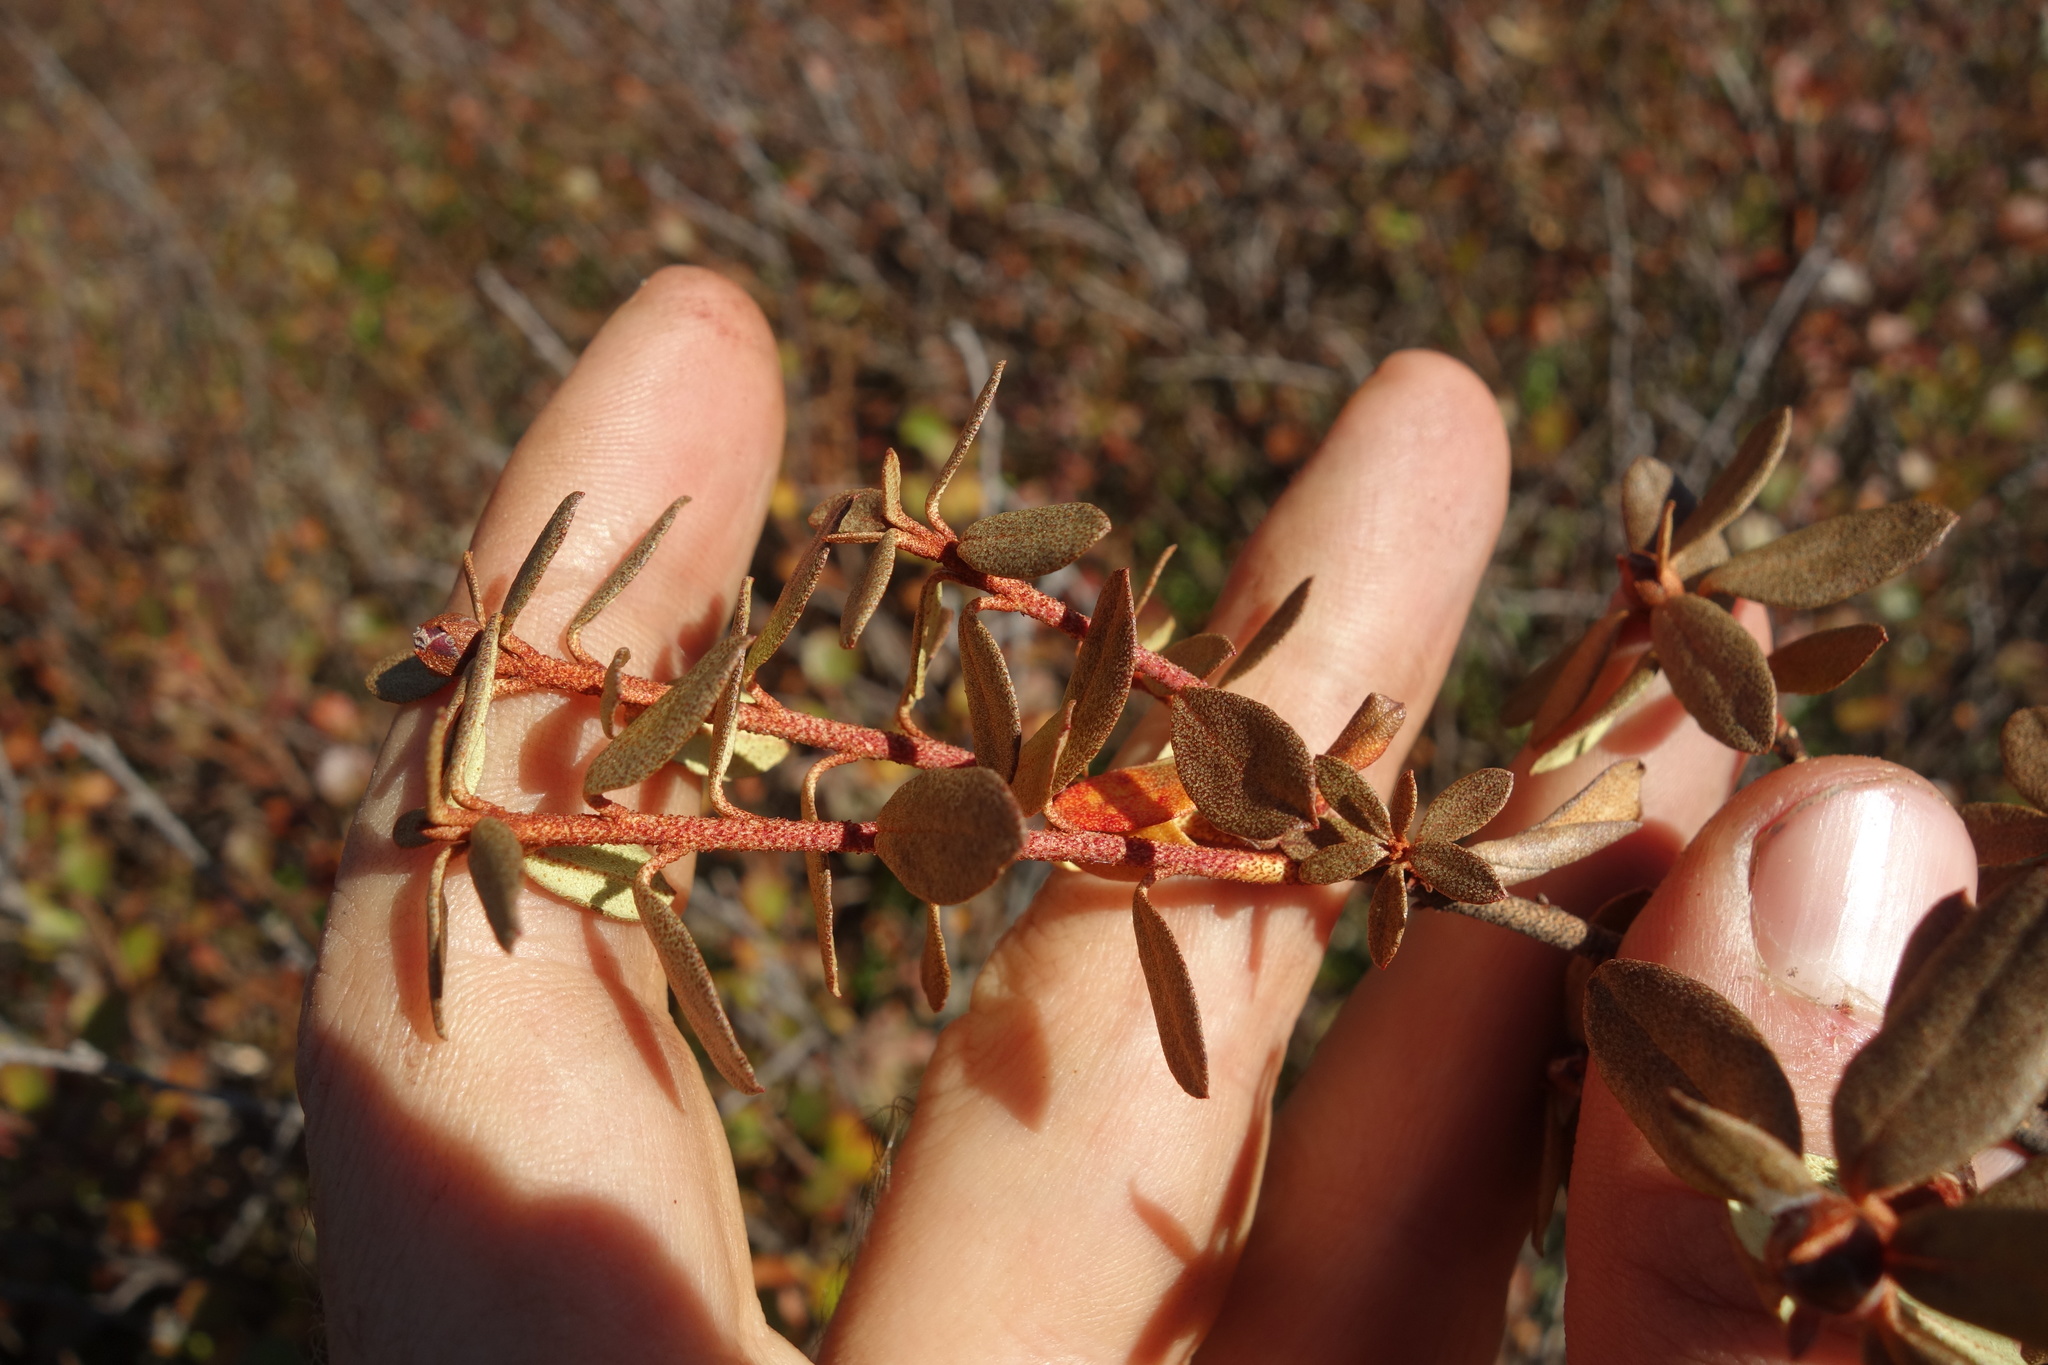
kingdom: Plantae
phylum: Tracheophyta
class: Magnoliopsida
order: Ericales
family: Ericaceae
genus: Rhododendron
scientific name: Rhododendron dauricum
